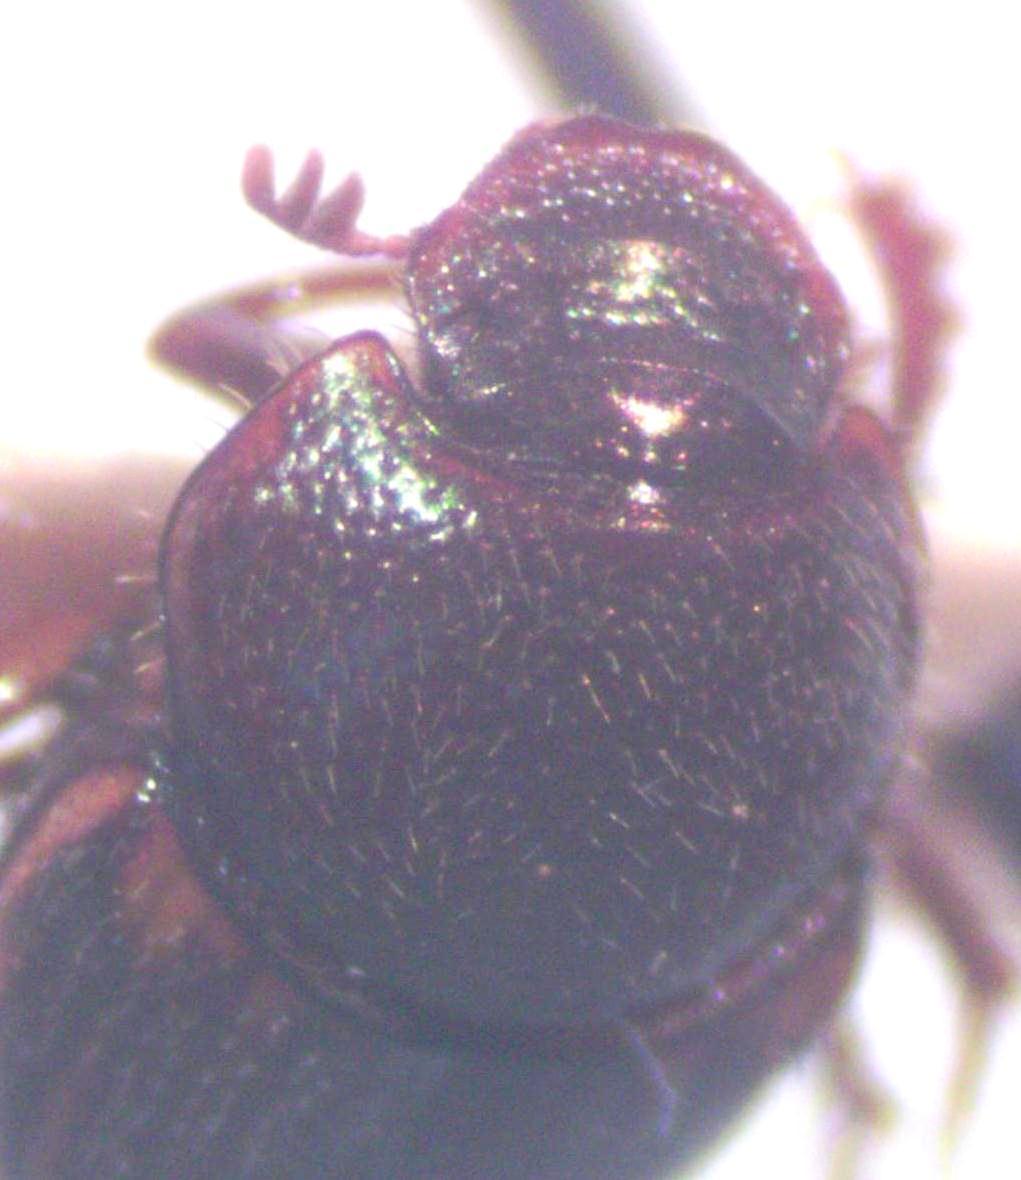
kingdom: Animalia
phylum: Arthropoda
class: Insecta
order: Coleoptera
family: Scarabaeidae
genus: Onthophagus
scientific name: Onthophagus landolti
